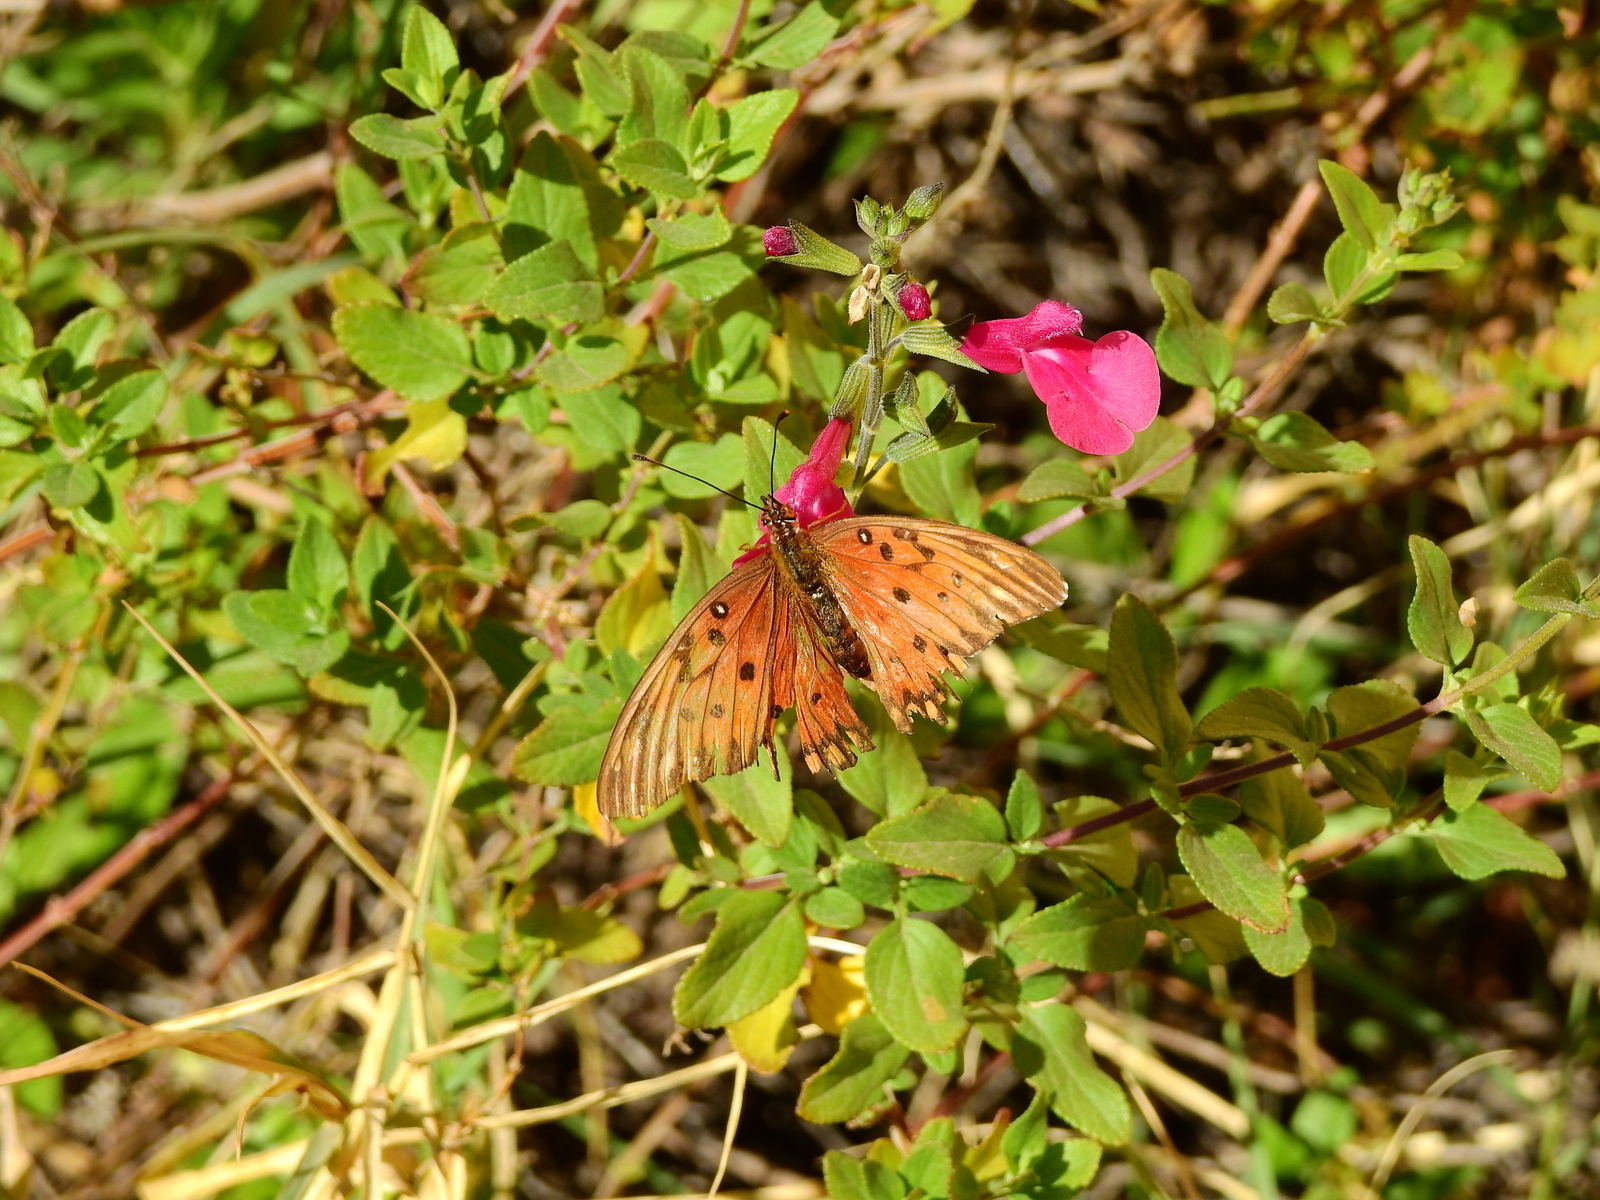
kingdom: Animalia
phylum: Arthropoda
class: Insecta
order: Lepidoptera
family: Nymphalidae
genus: Dione
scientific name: Dione vanillae
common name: Gulf fritillary
